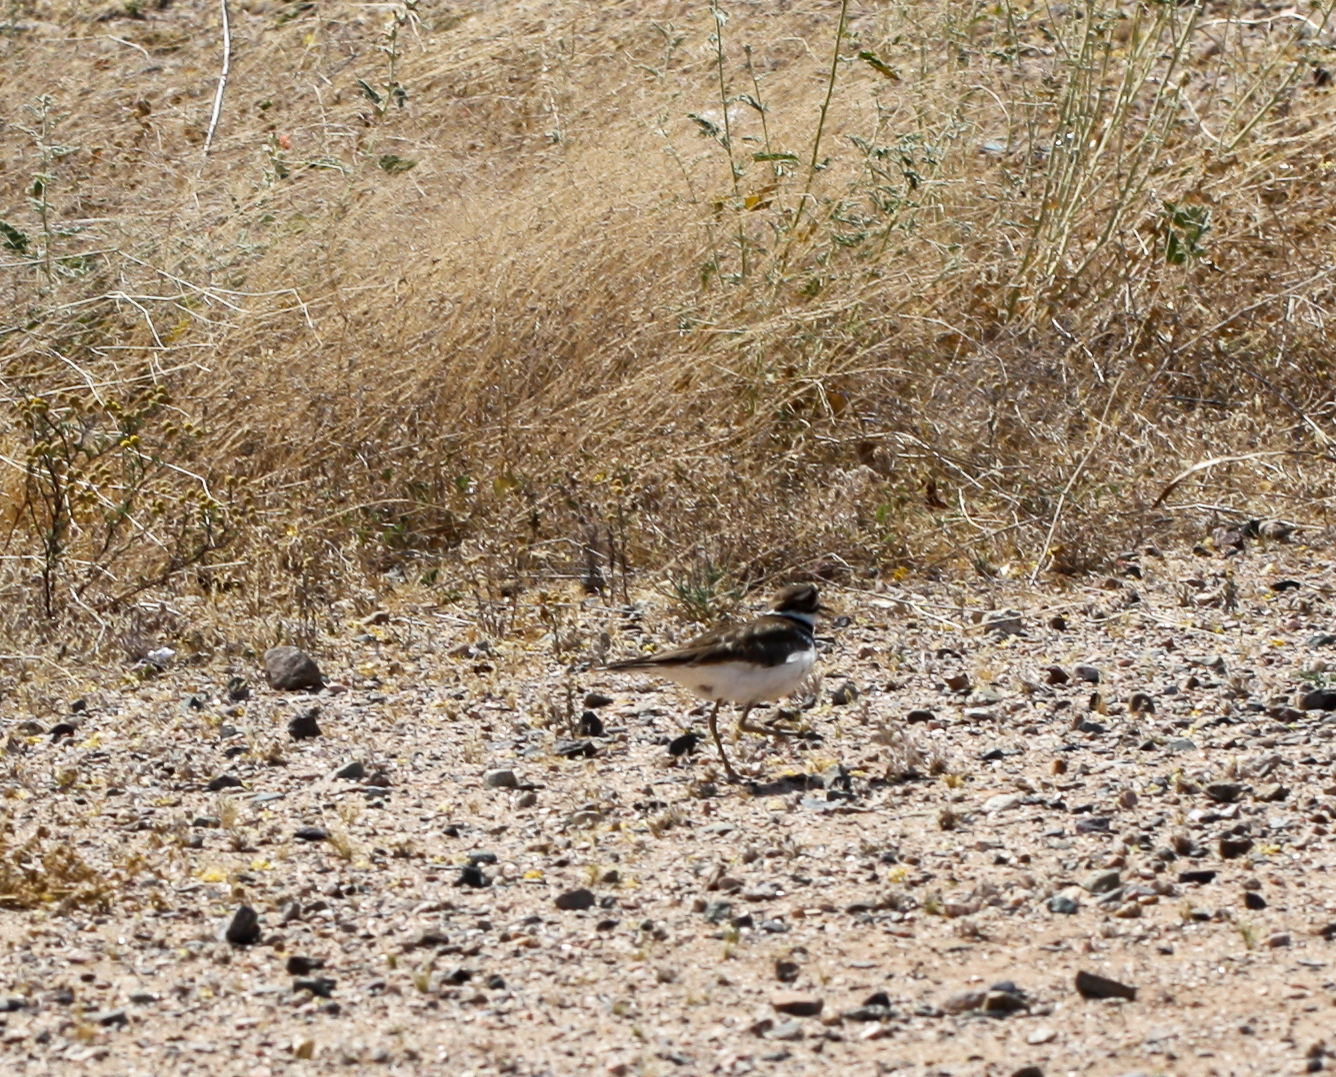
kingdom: Animalia
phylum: Chordata
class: Aves
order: Charadriiformes
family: Charadriidae
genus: Charadrius
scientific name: Charadrius vociferus
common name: Killdeer
